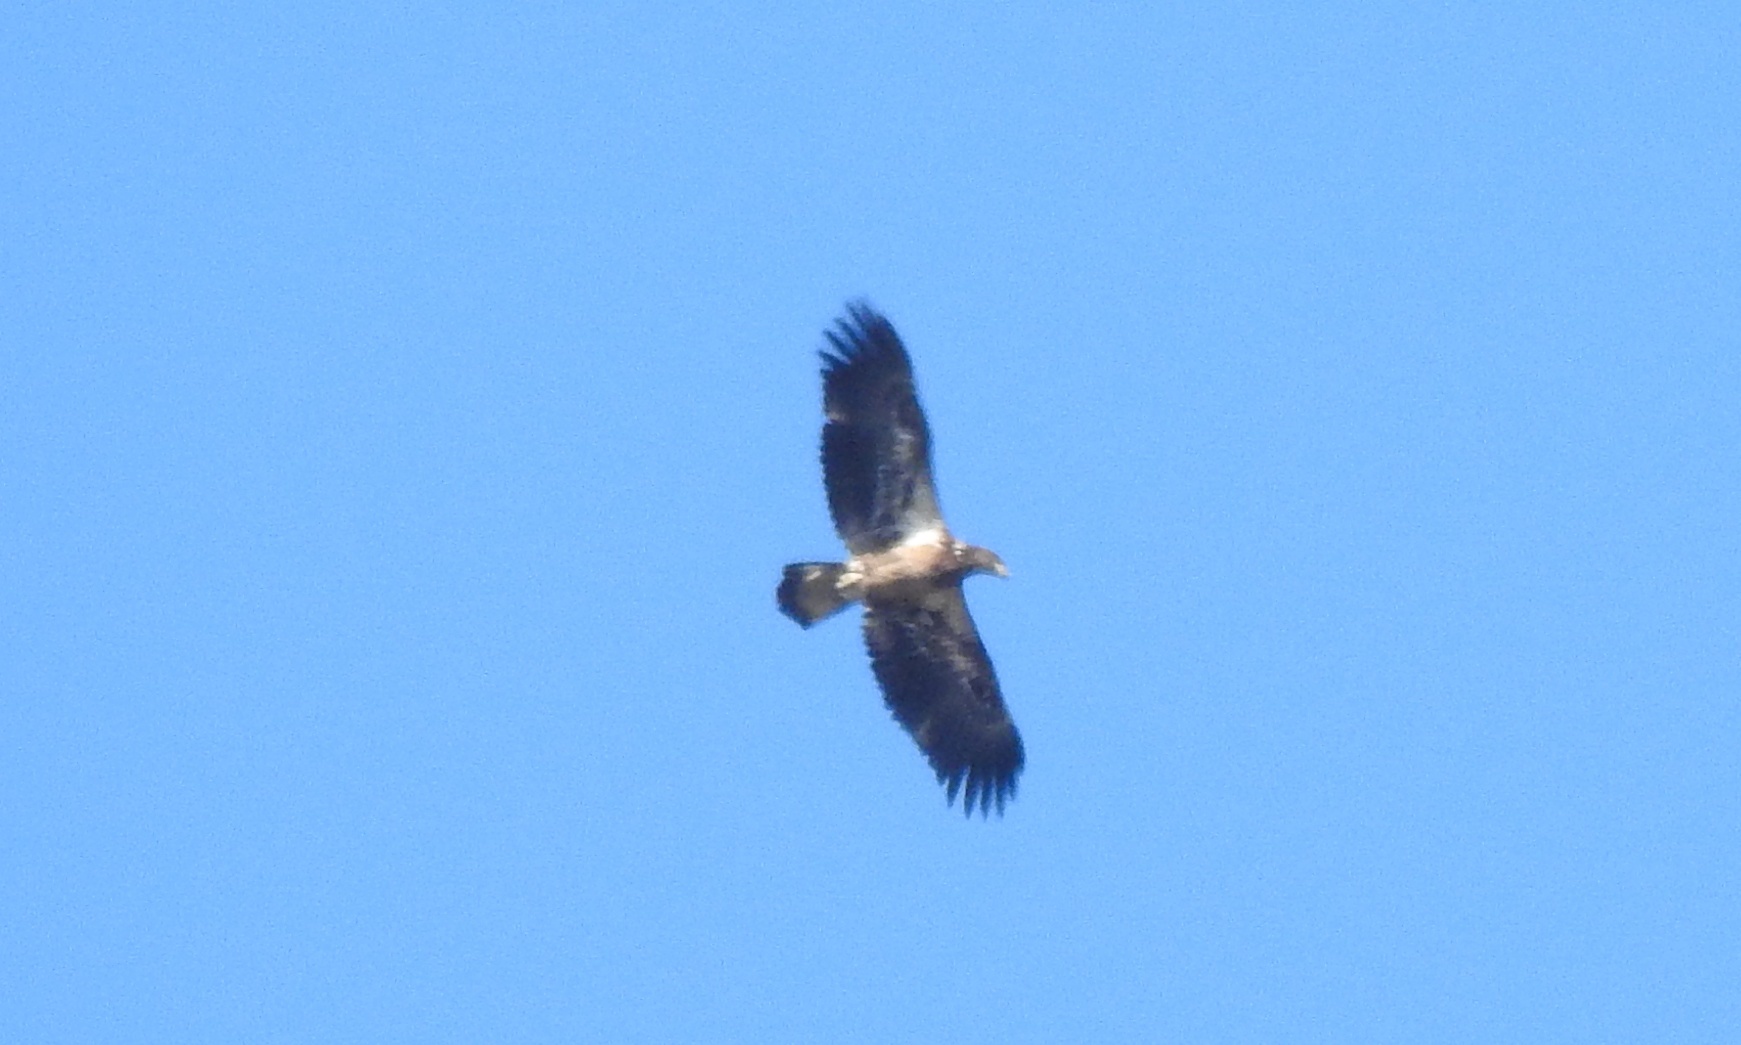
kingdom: Animalia
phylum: Chordata
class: Aves
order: Accipitriformes
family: Accipitridae
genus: Haliaeetus
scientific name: Haliaeetus leucocephalus
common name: Bald eagle
